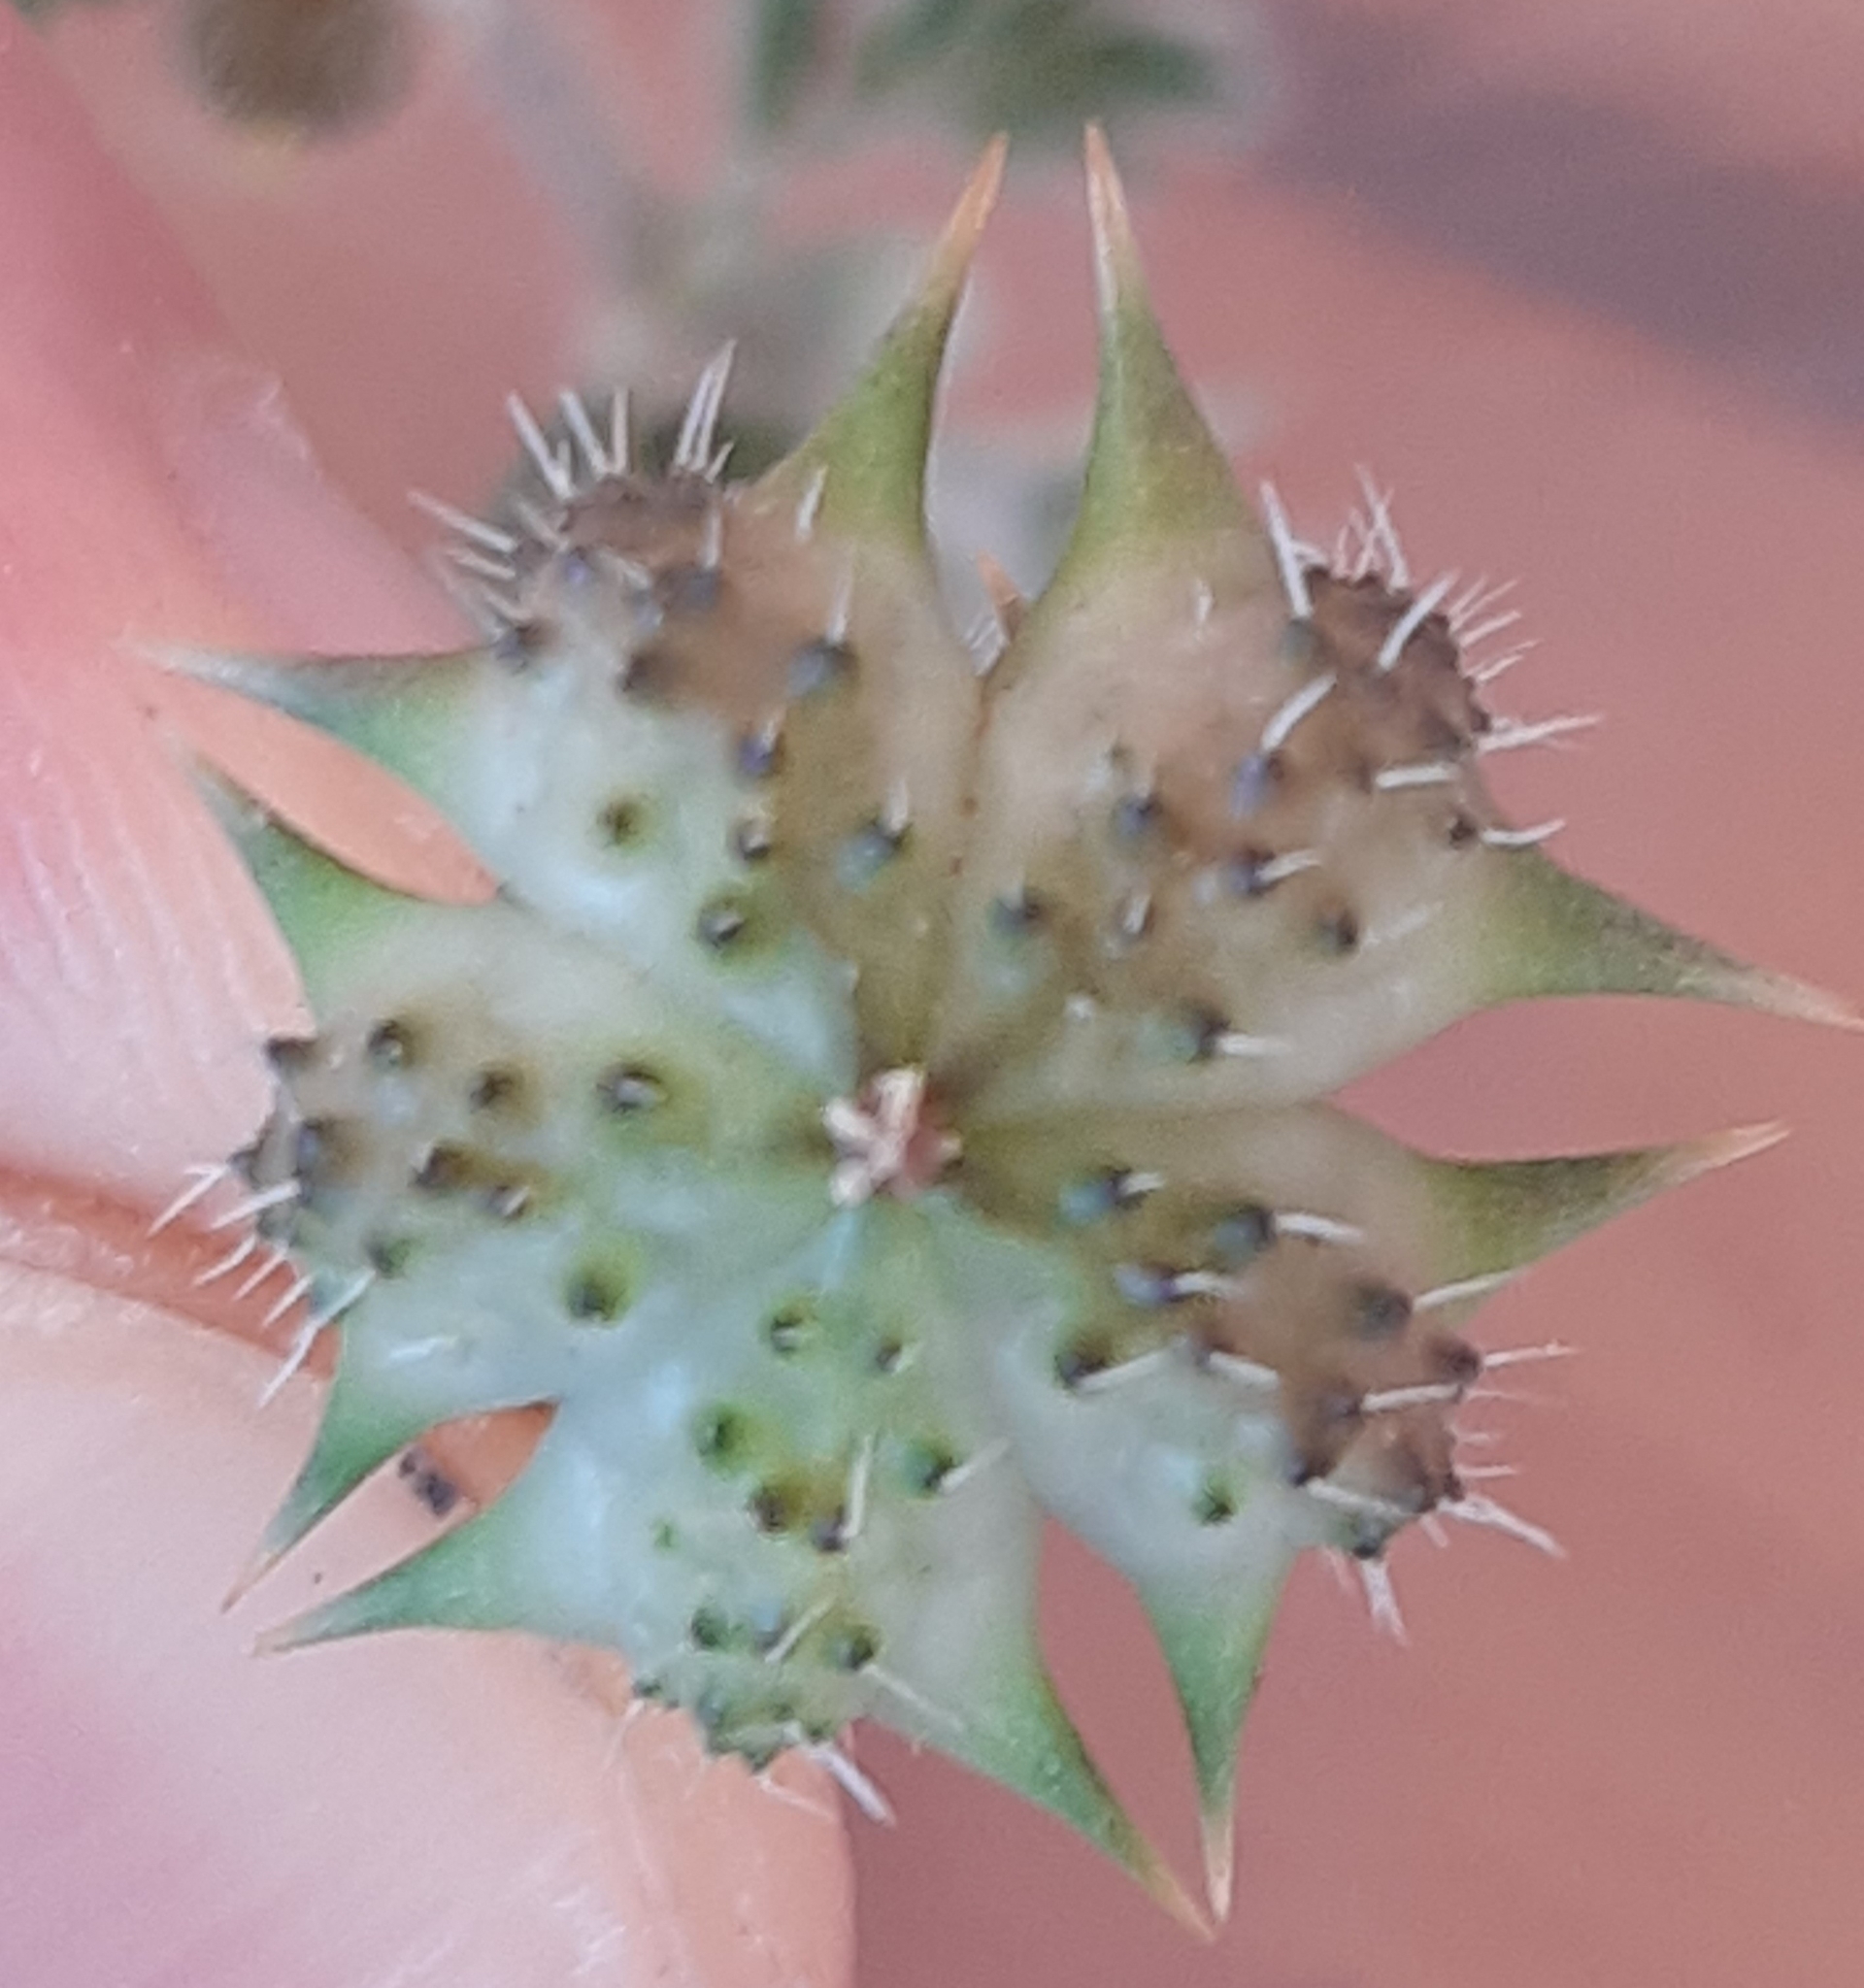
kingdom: Plantae
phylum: Tracheophyta
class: Magnoliopsida
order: Zygophyllales
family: Zygophyllaceae
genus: Tribulus
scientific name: Tribulus terrestris
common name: Puncturevine
